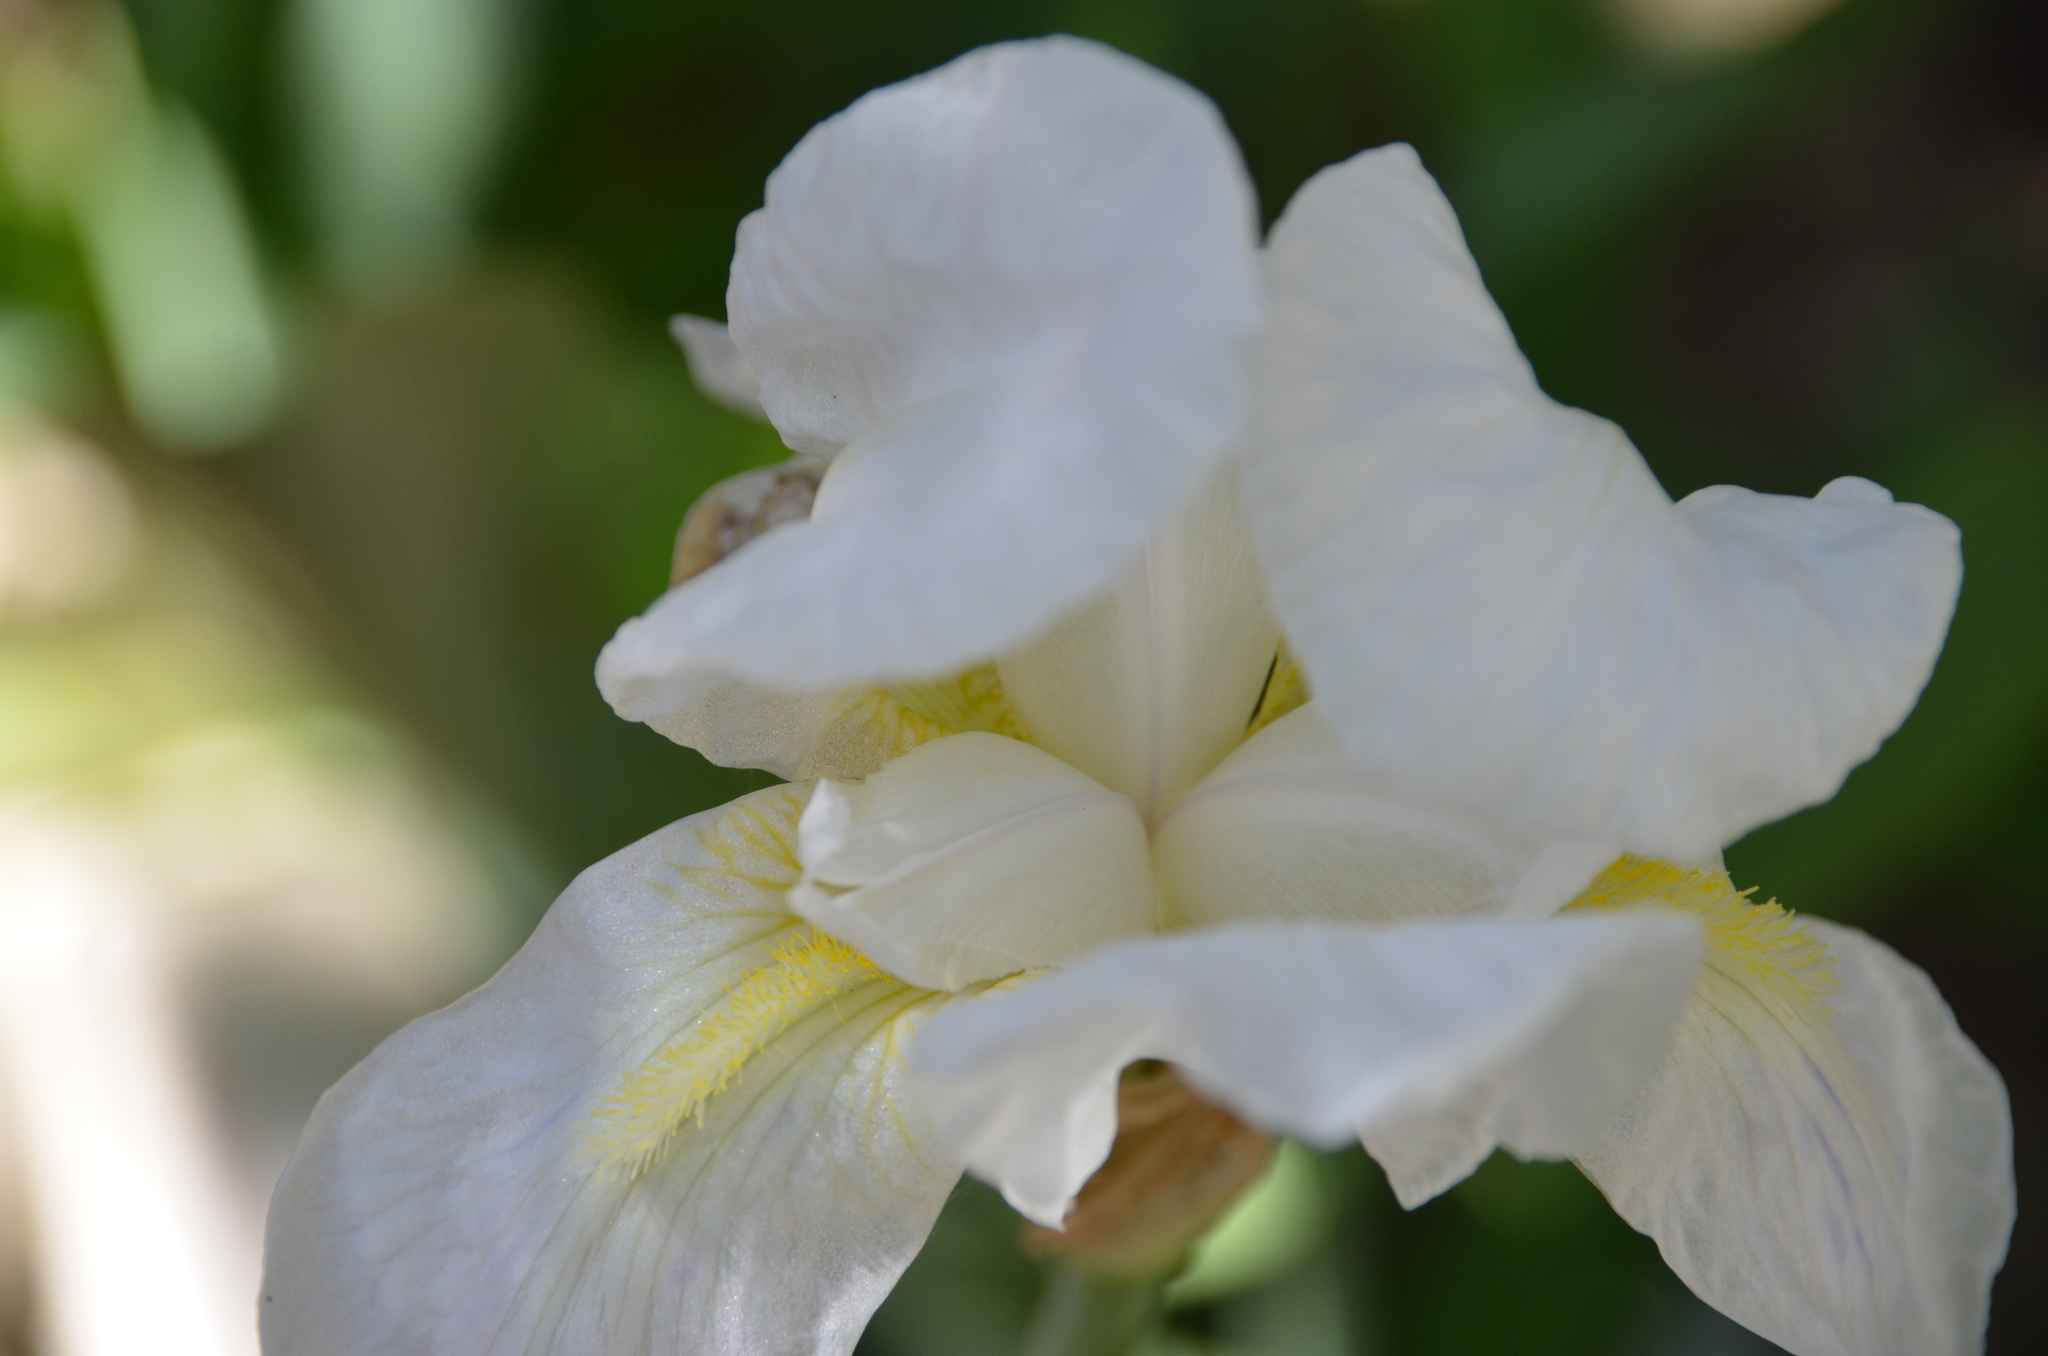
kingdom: Plantae
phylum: Tracheophyta
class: Liliopsida
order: Asparagales
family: Iridaceae
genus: Iris
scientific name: Iris florentina
